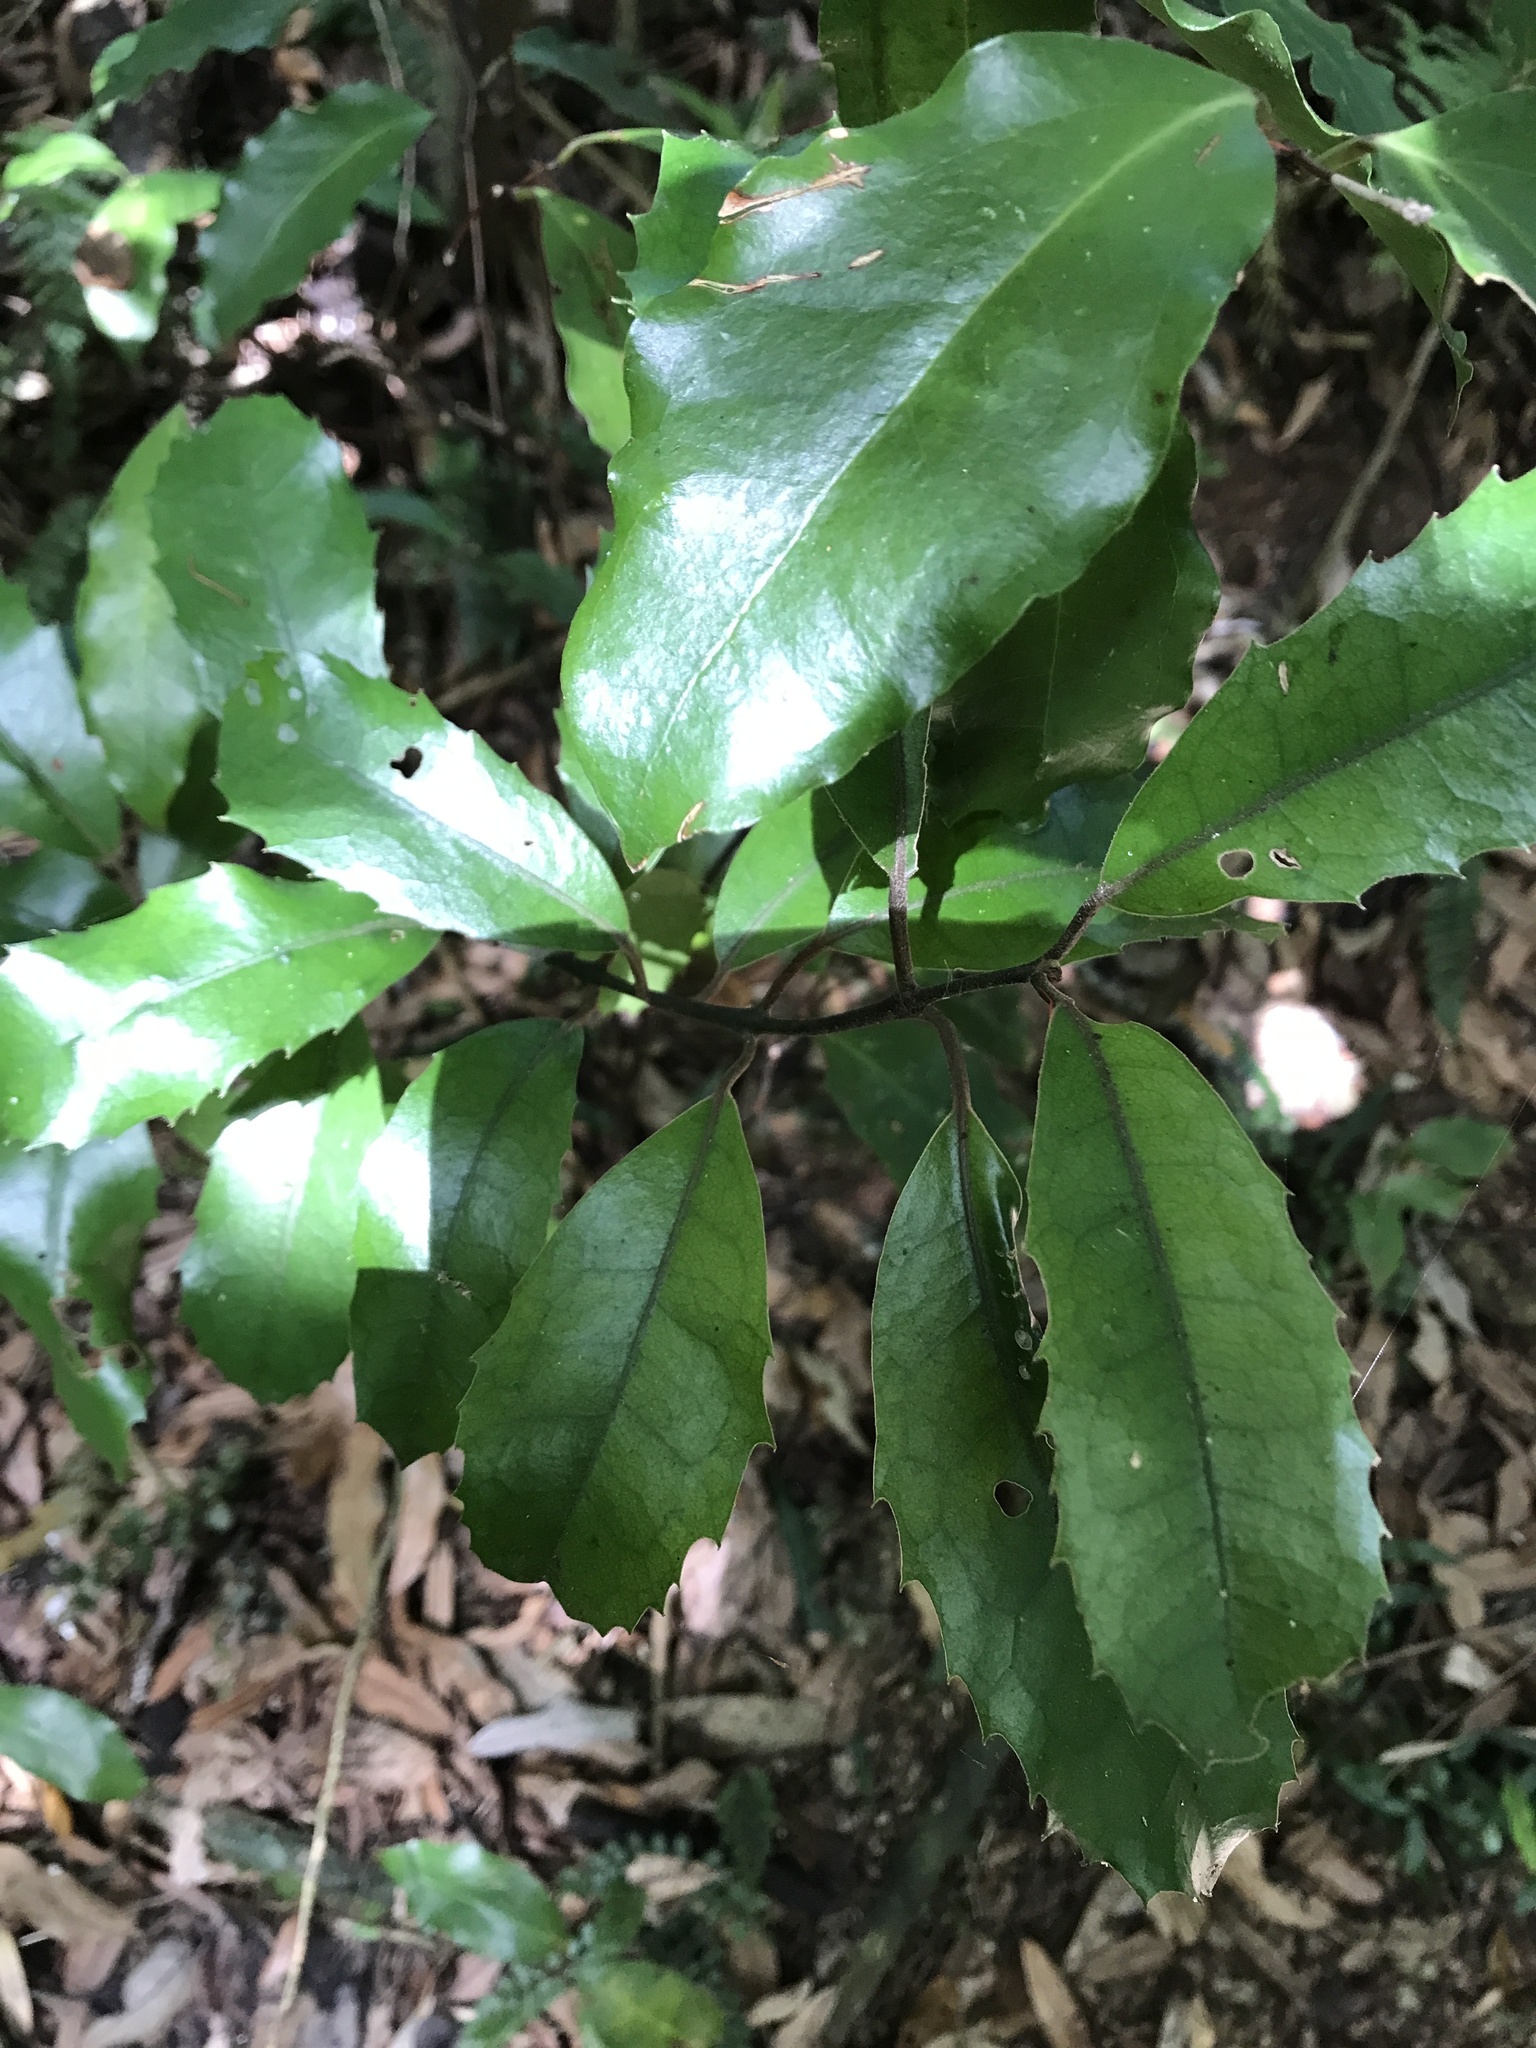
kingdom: Plantae
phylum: Tracheophyta
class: Magnoliopsida
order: Laurales
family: Monimiaceae
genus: Hedycarya
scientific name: Hedycarya arborea
